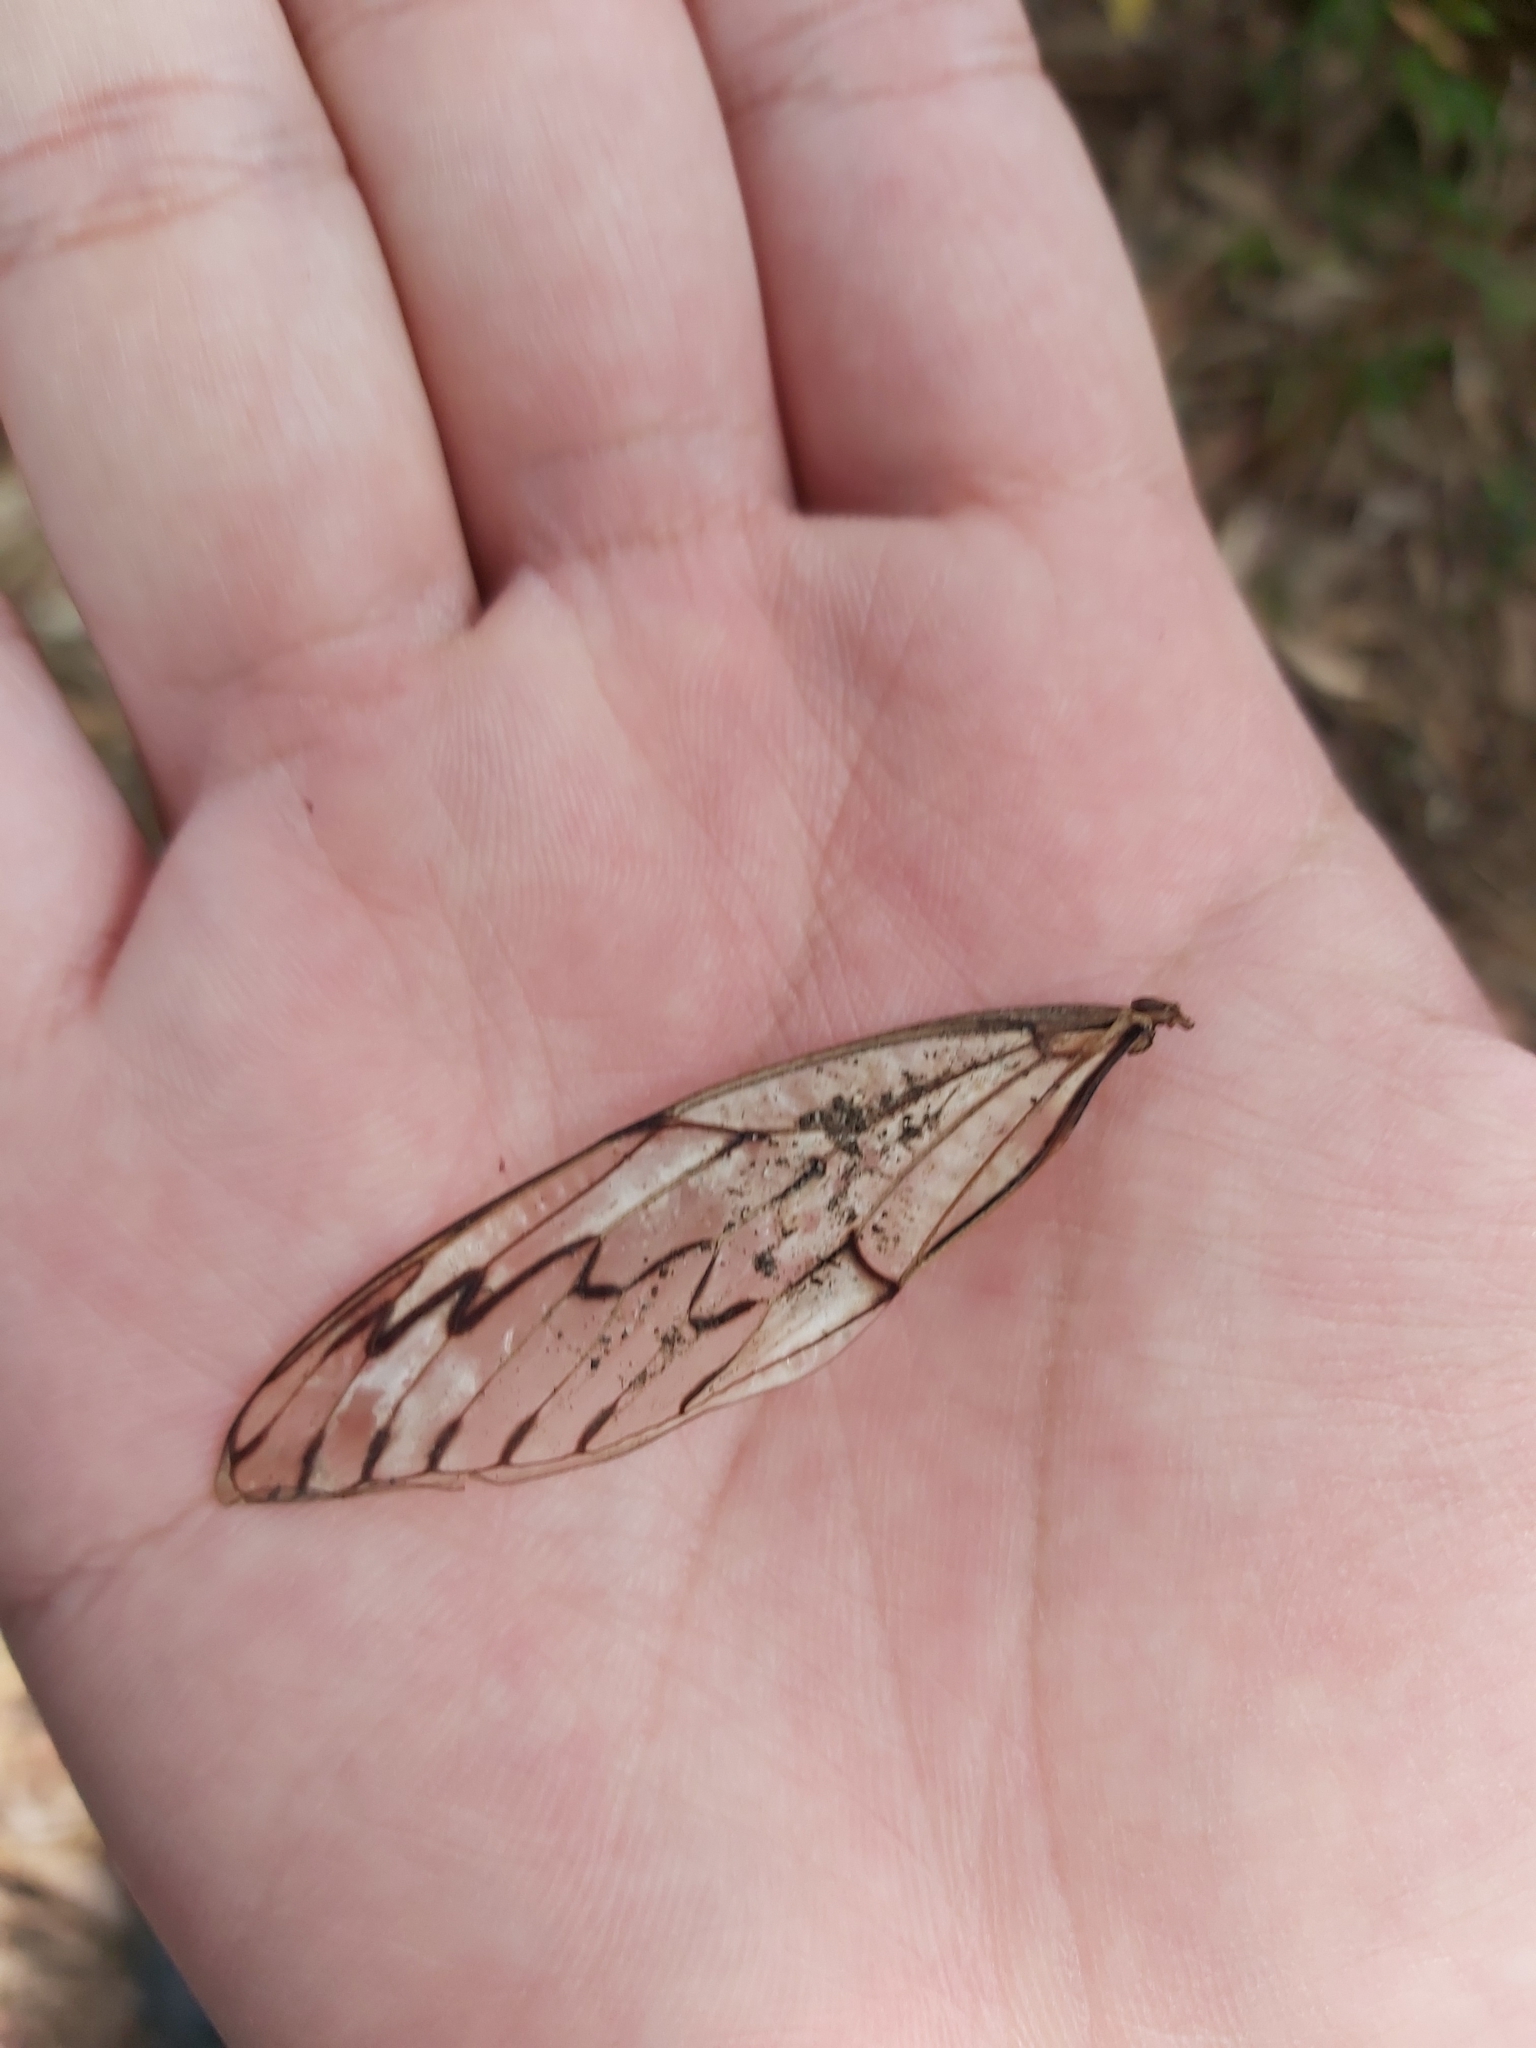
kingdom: Animalia
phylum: Arthropoda
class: Insecta
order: Hemiptera
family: Cicadidae
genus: Henicopsaltria
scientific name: Henicopsaltria eydouxii
